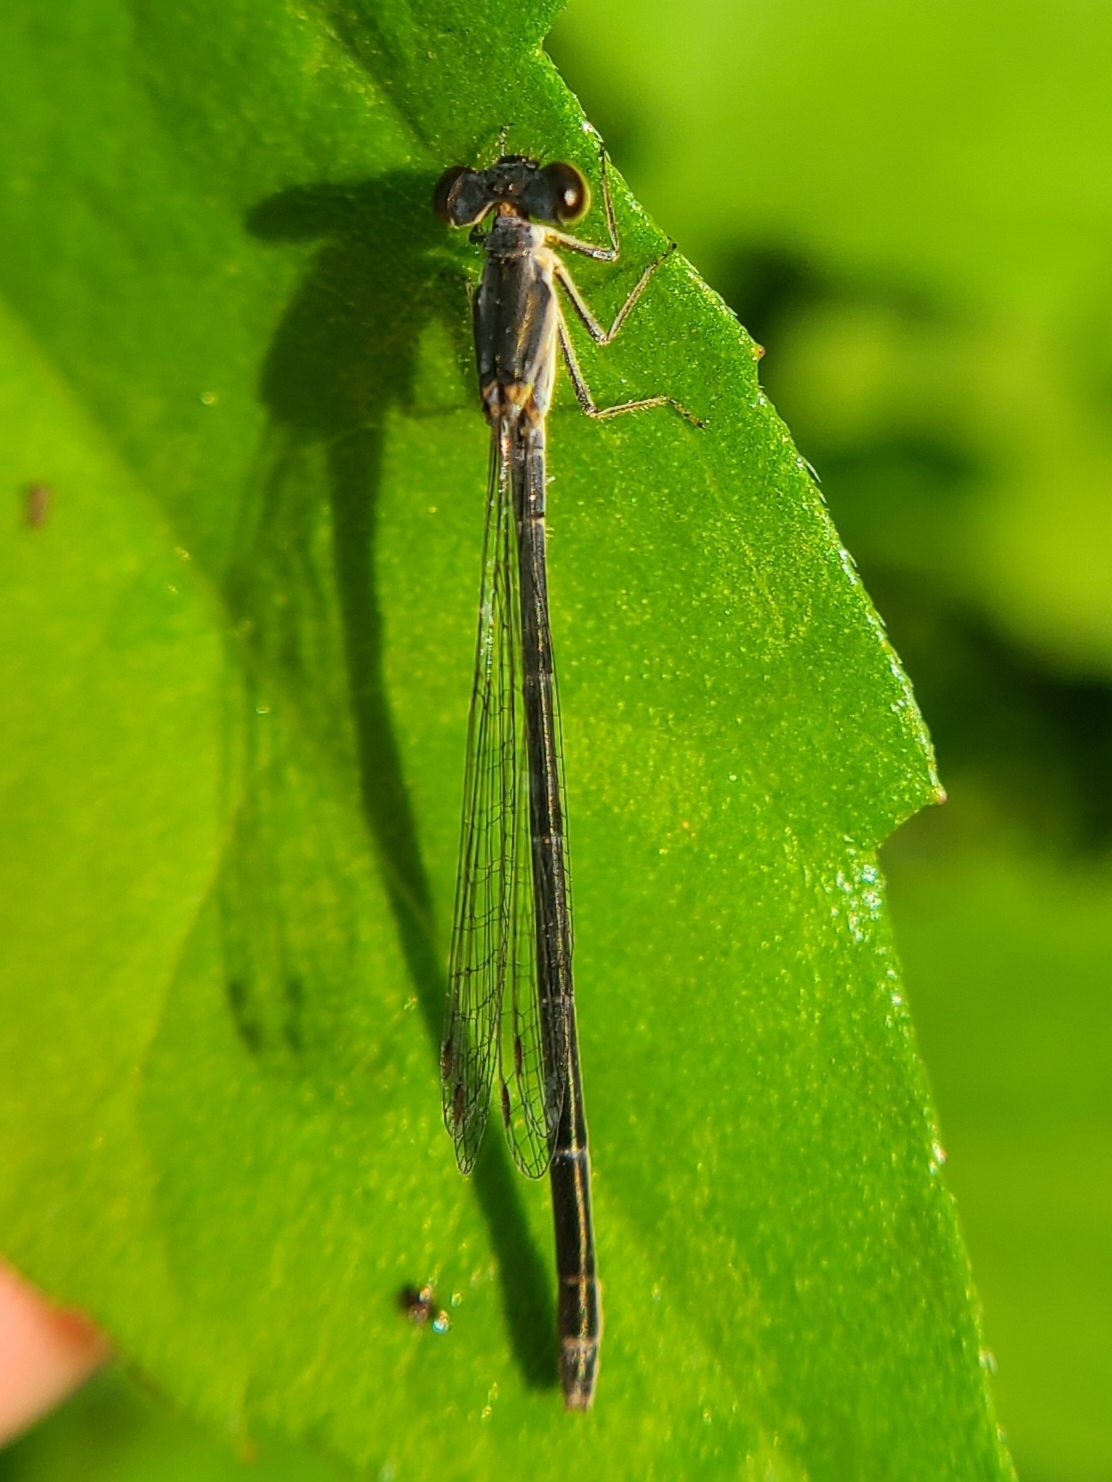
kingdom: Animalia
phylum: Arthropoda
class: Insecta
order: Odonata
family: Coenagrionidae
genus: Ischnura
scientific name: Ischnura posita
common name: Fragile forktail
